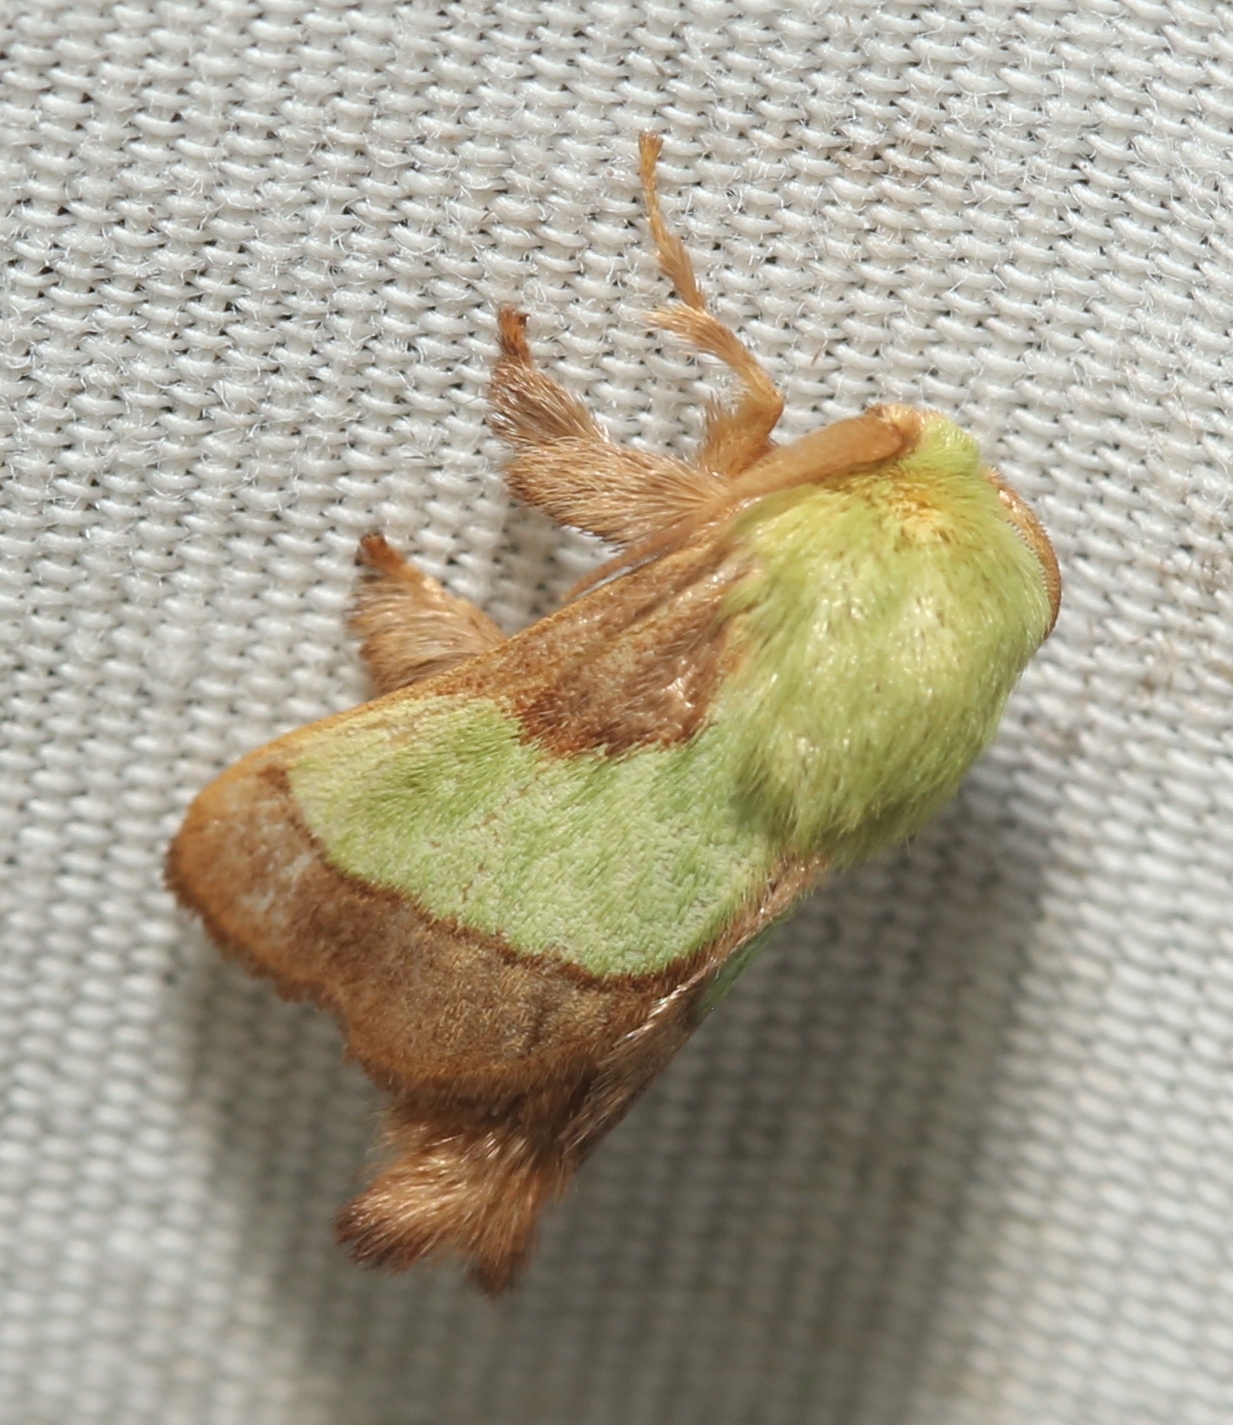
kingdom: Animalia
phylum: Arthropoda
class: Insecta
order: Lepidoptera
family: Limacodidae
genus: Parasa
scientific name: Parasa chloris
